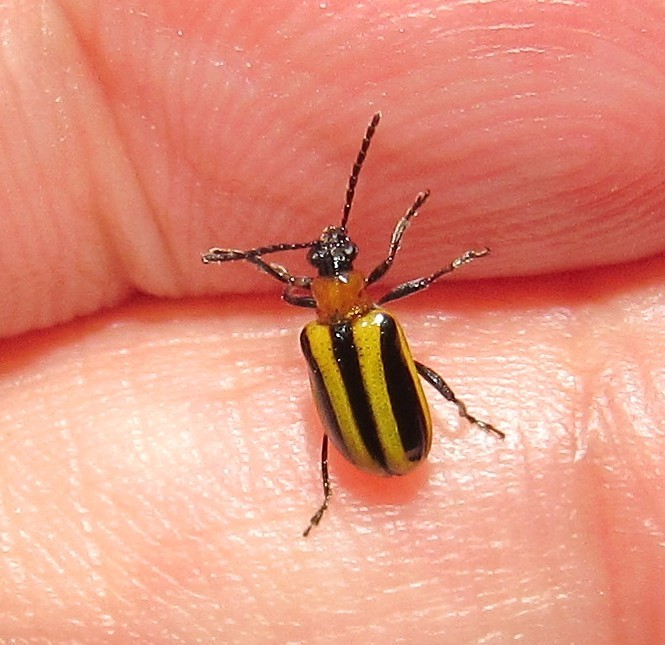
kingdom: Animalia
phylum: Arthropoda
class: Insecta
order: Coleoptera
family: Chrysomelidae
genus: Lema
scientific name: Lema confusa
